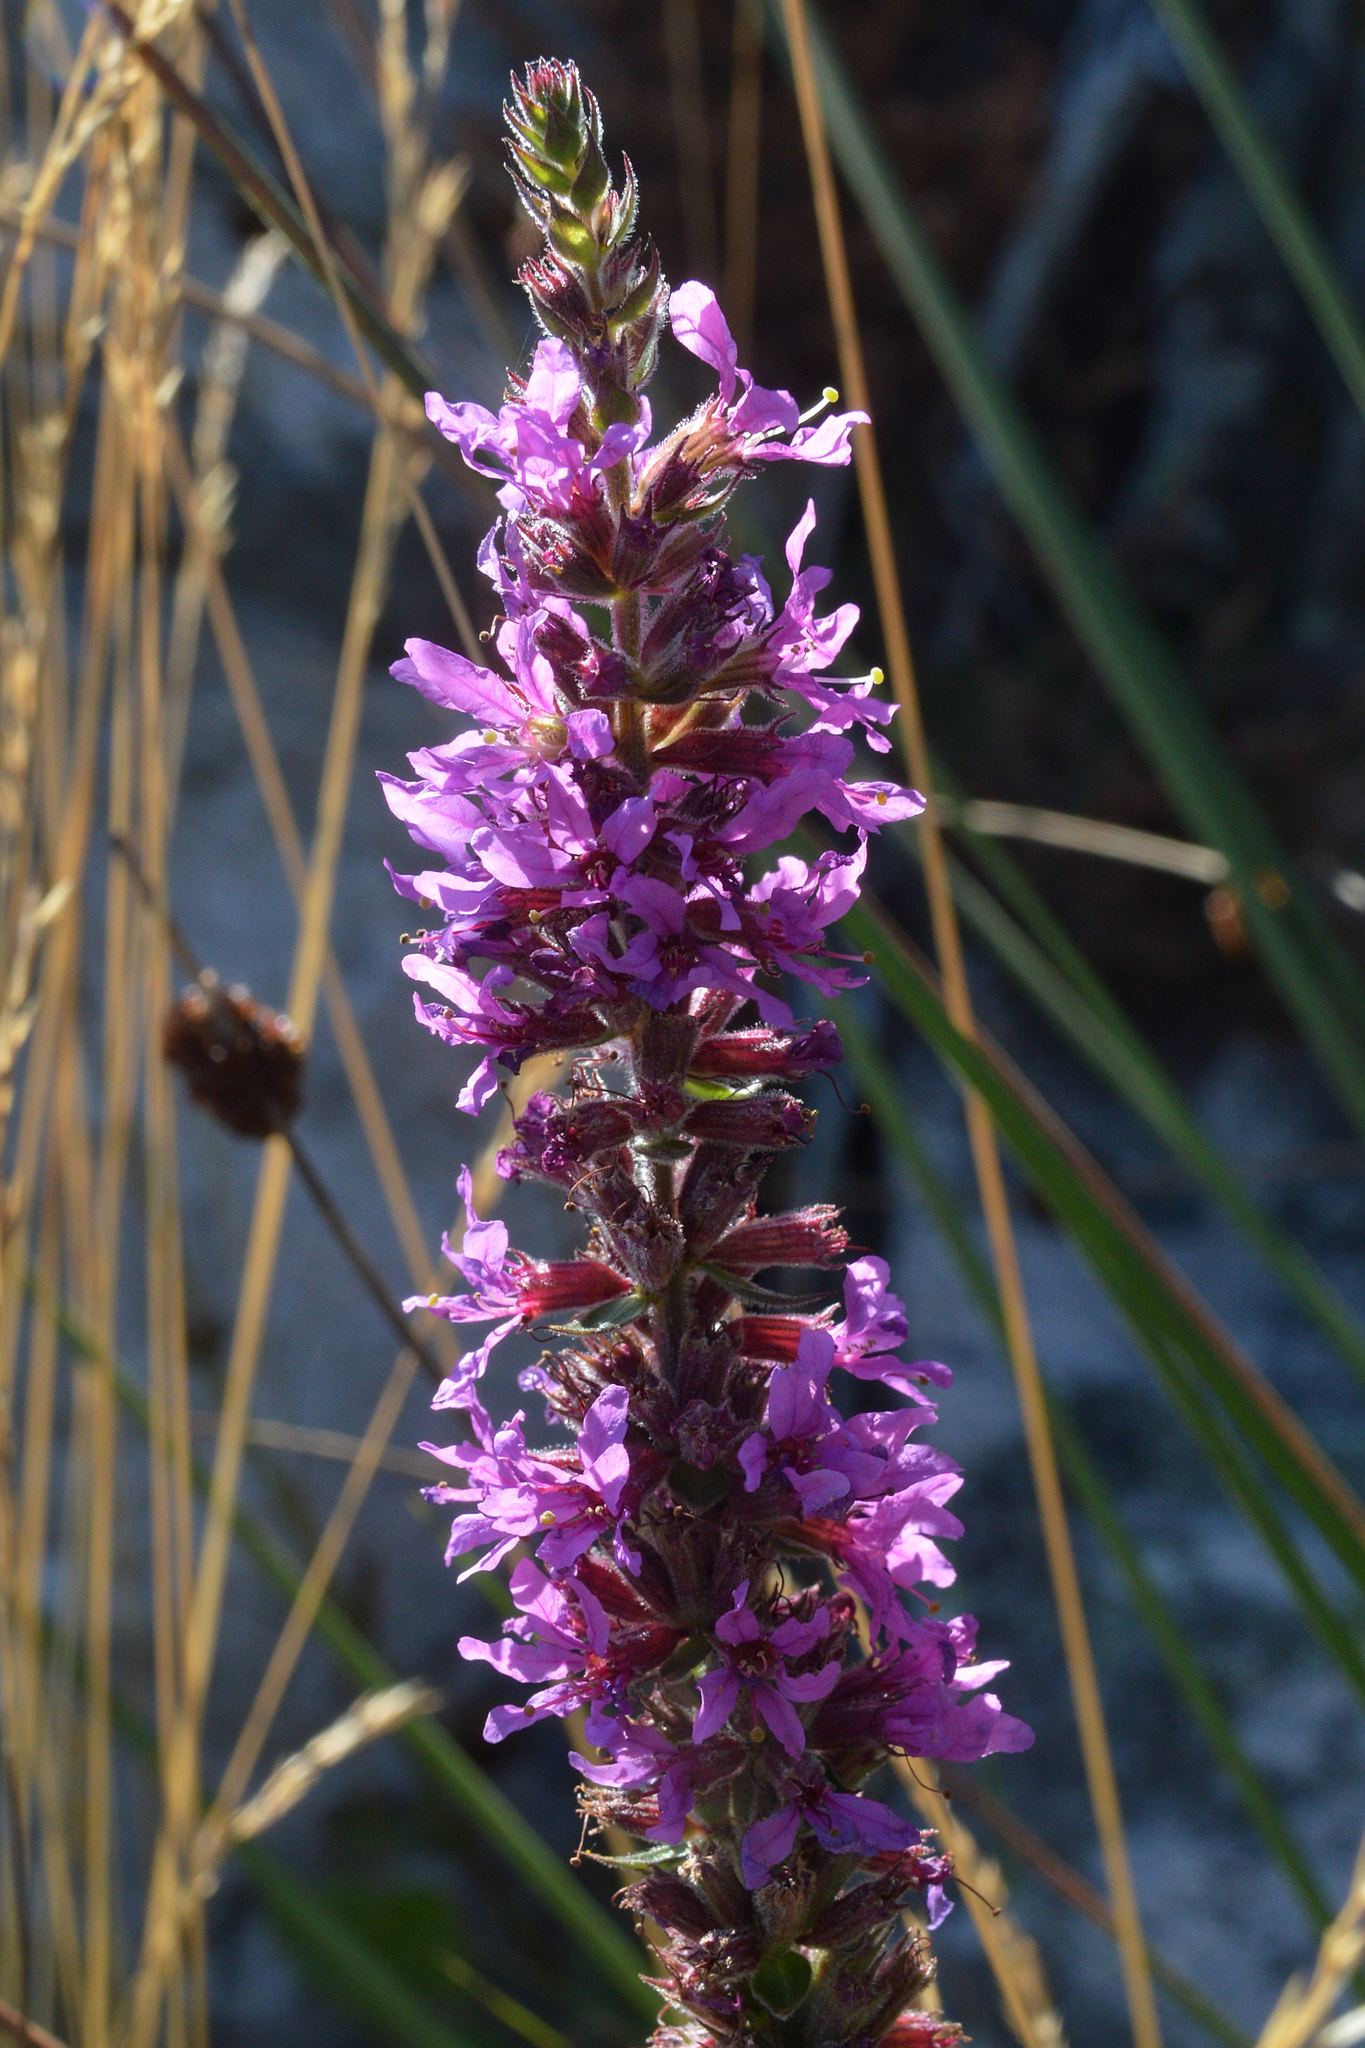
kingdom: Plantae
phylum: Tracheophyta
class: Magnoliopsida
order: Myrtales
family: Lythraceae
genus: Lythrum
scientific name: Lythrum salicaria
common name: Purple loosestrife
